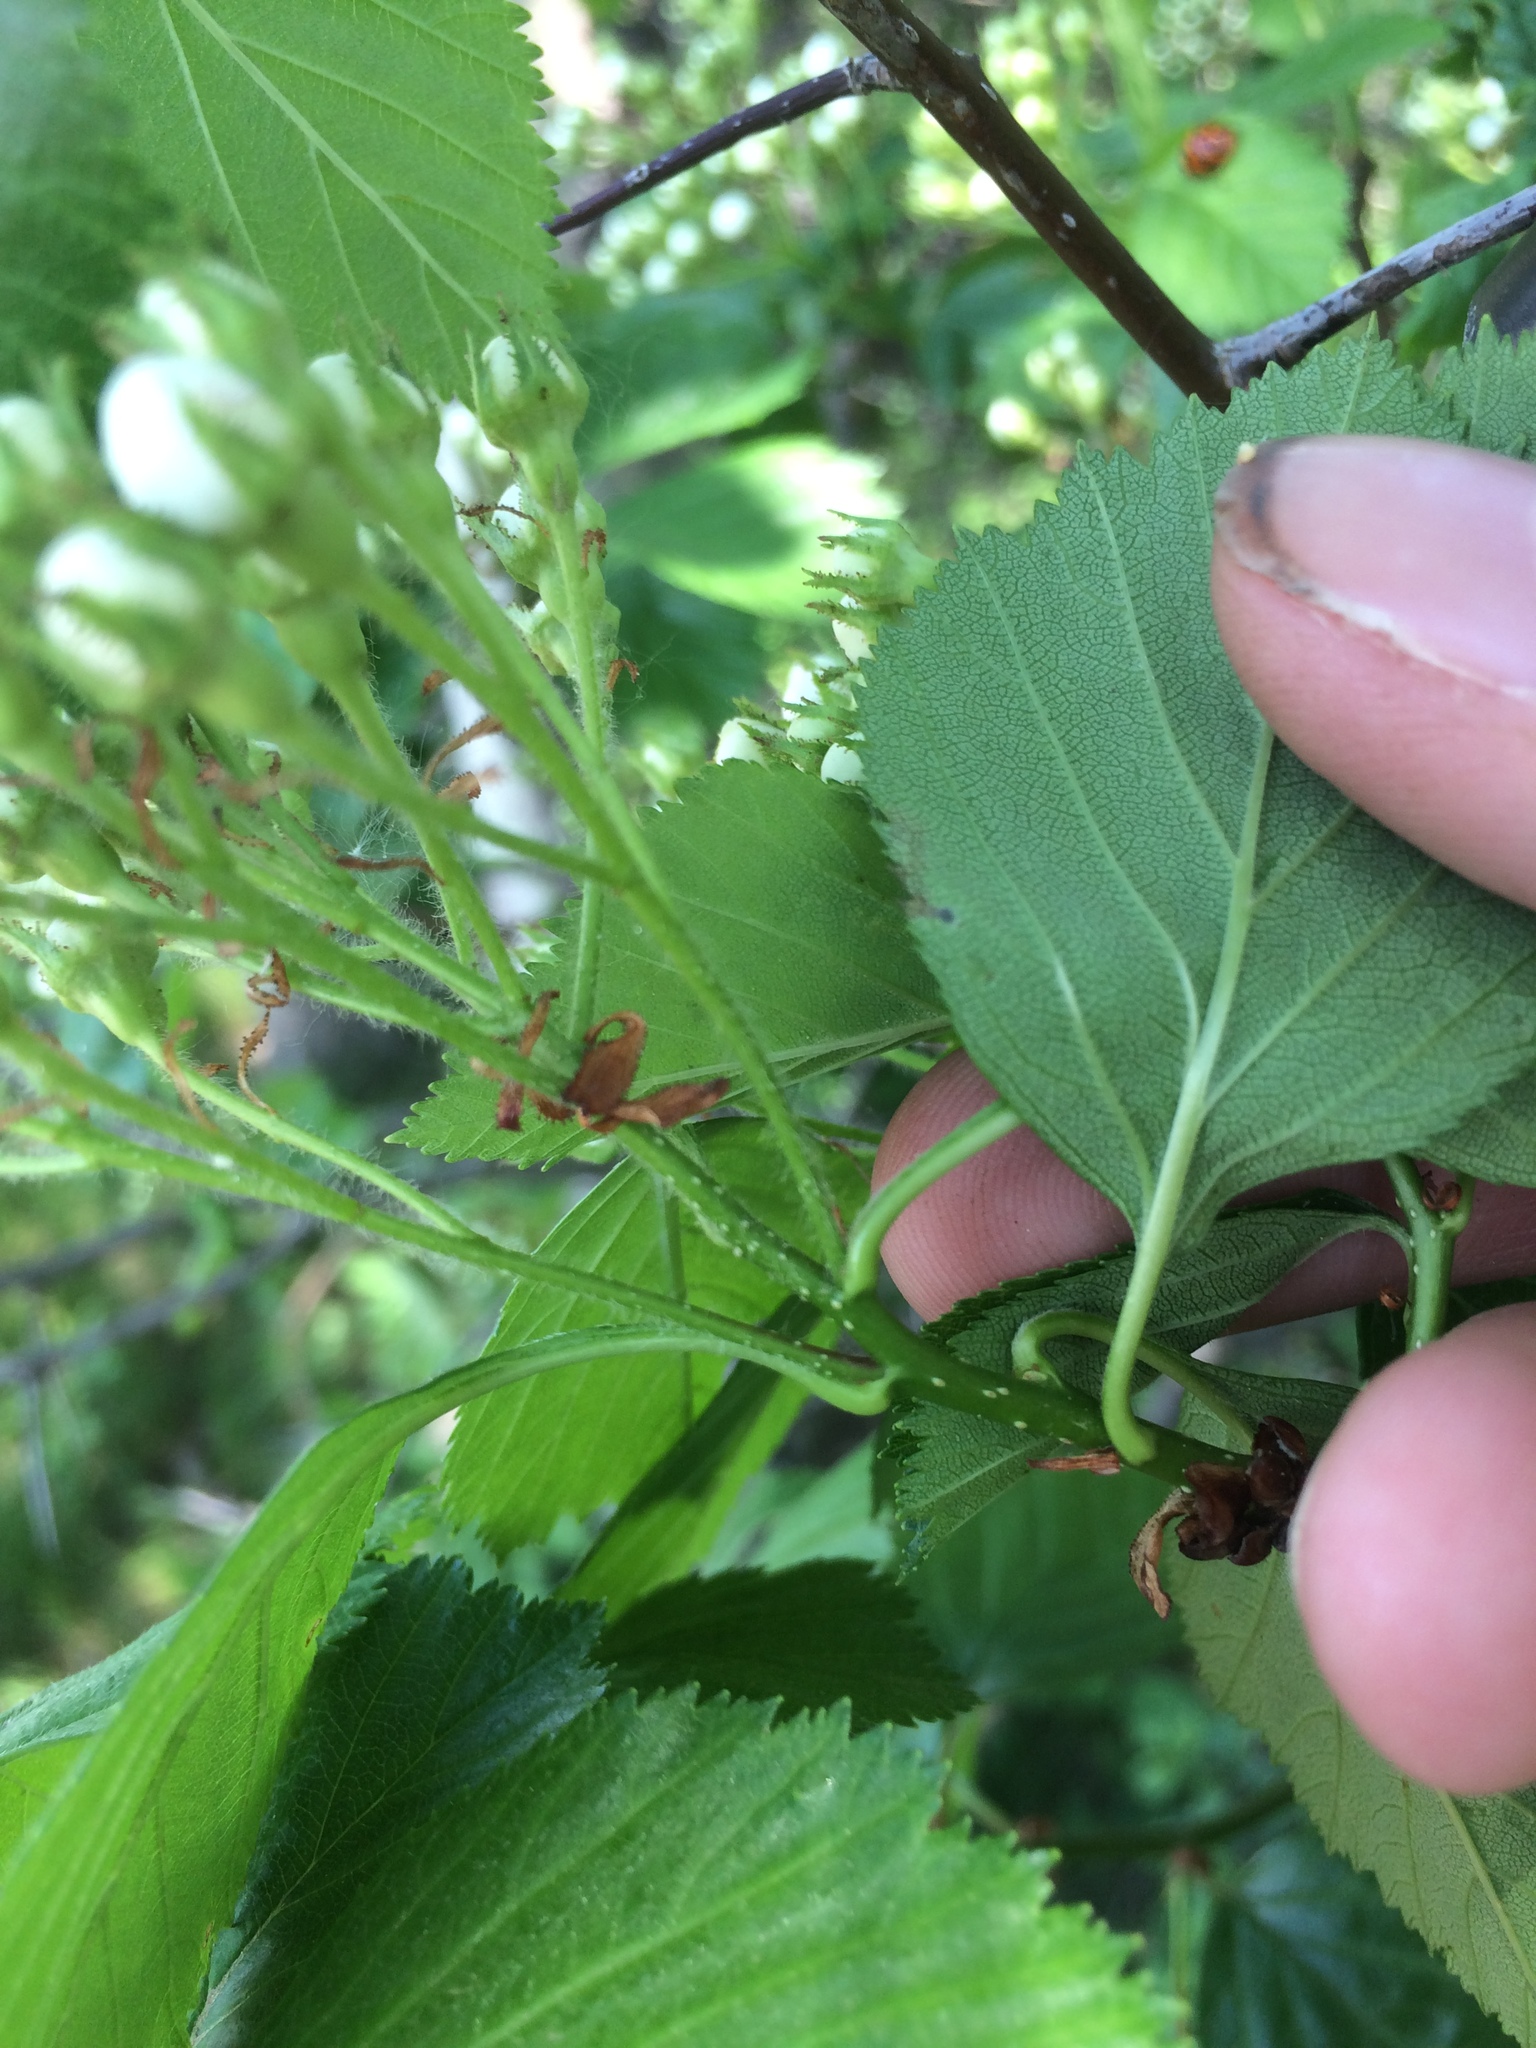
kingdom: Plantae
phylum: Tracheophyta
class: Magnoliopsida
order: Rosales
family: Rosaceae
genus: Crataegus
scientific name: Crataegus macracantha
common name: Large-thorn hawthorn
